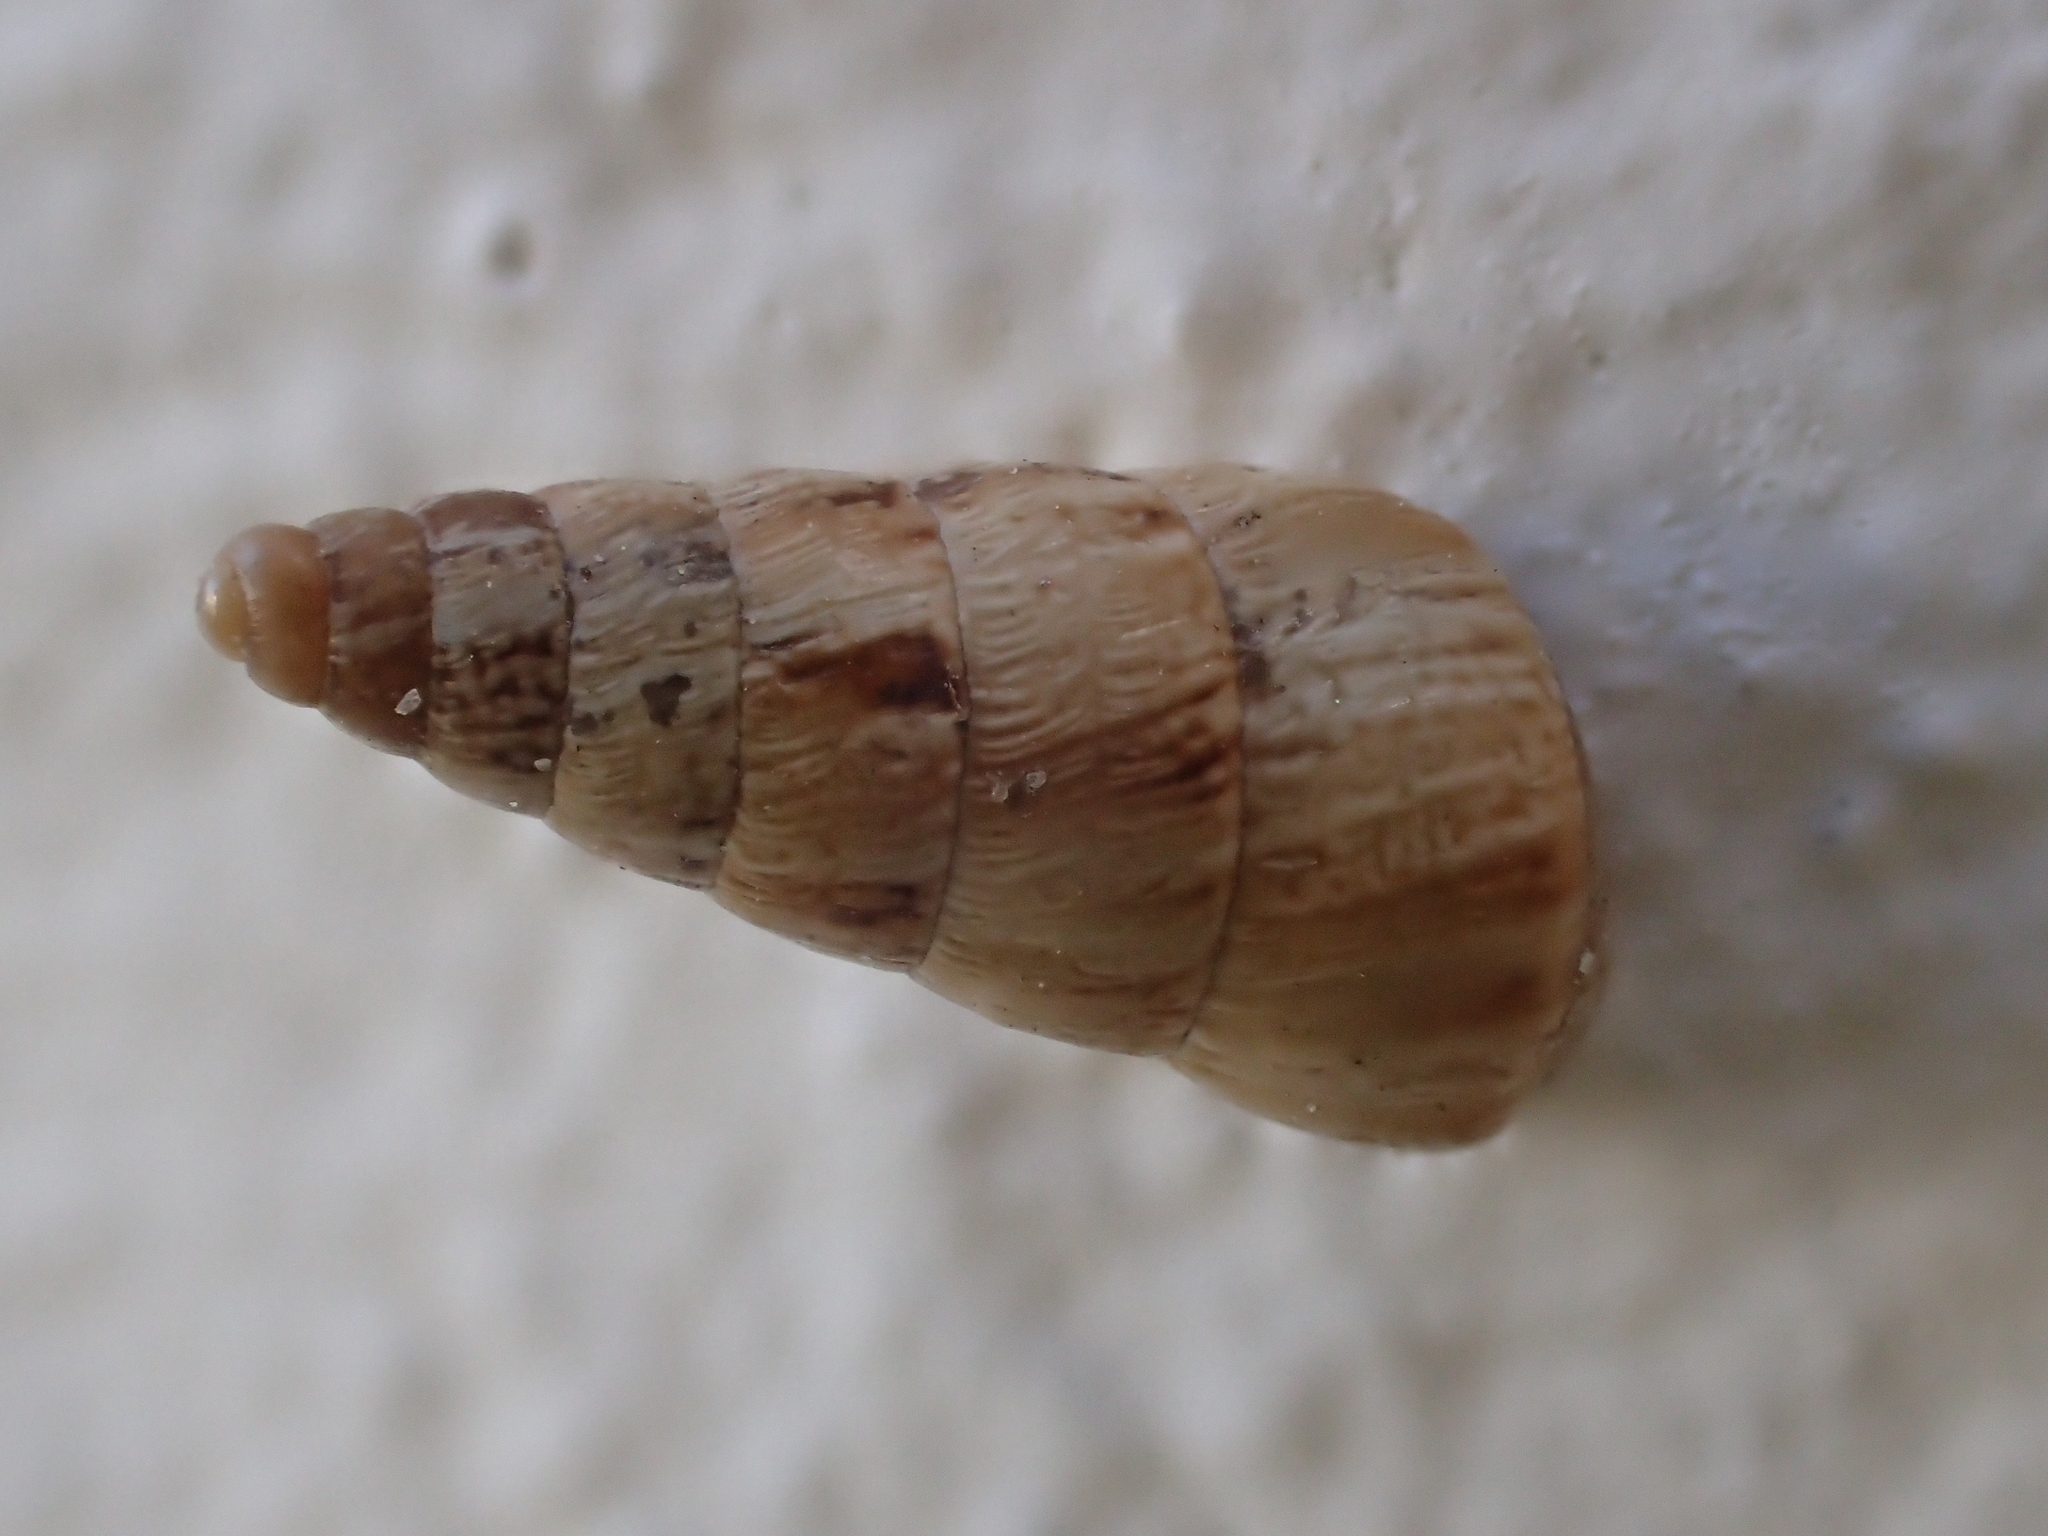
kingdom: Animalia
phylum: Mollusca
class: Gastropoda
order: Stylommatophora
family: Geomitridae
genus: Cochlicella
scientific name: Cochlicella acuta
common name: Pointed snail
